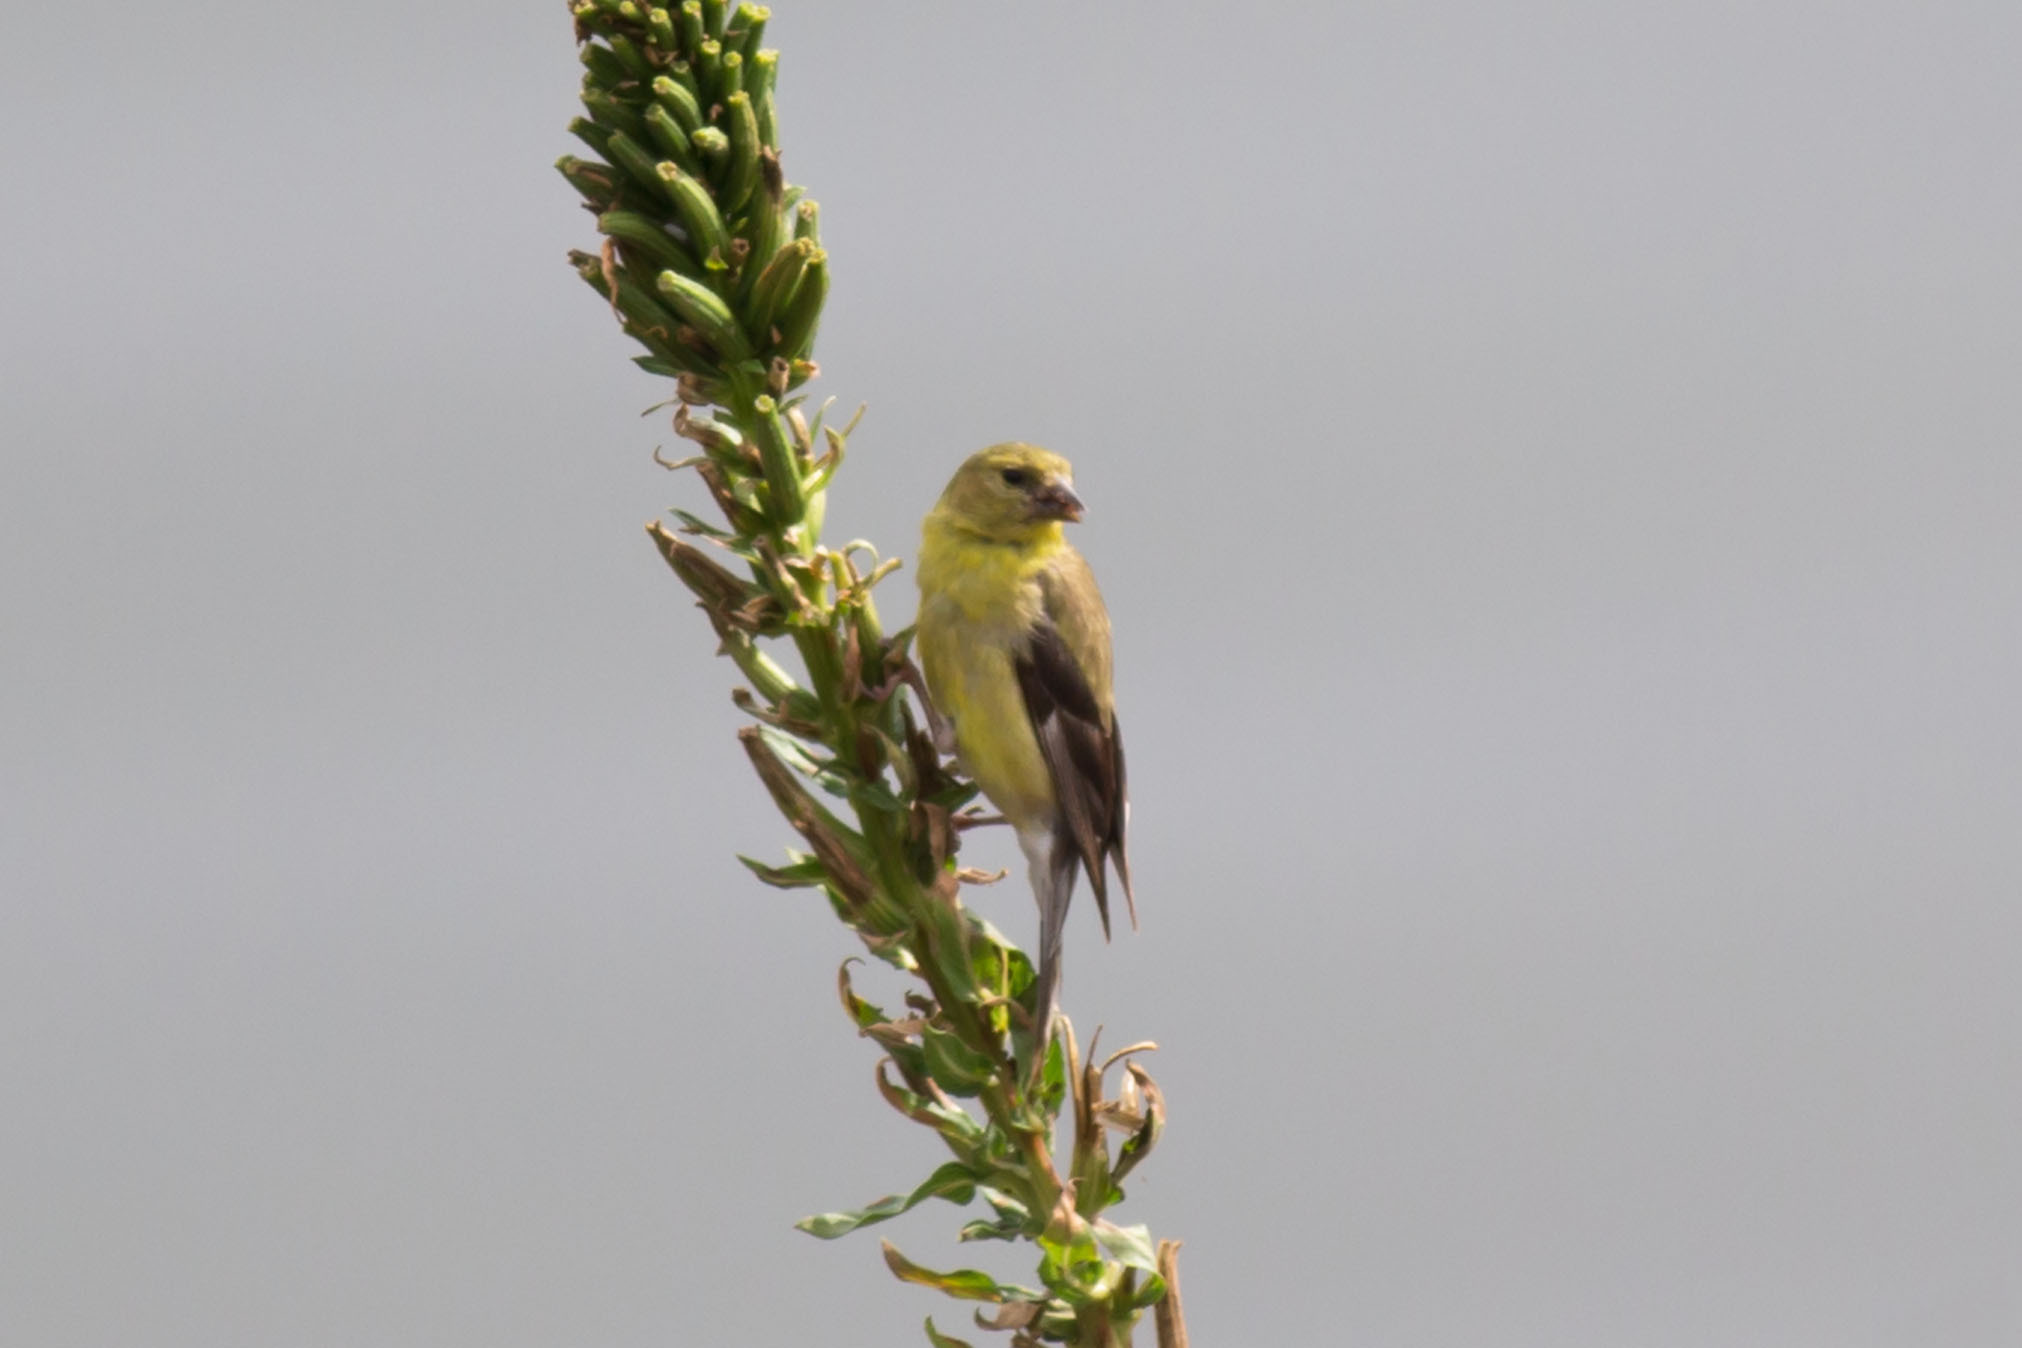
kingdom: Animalia
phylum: Chordata
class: Aves
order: Passeriformes
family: Fringillidae
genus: Spinus
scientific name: Spinus tristis
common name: American goldfinch
